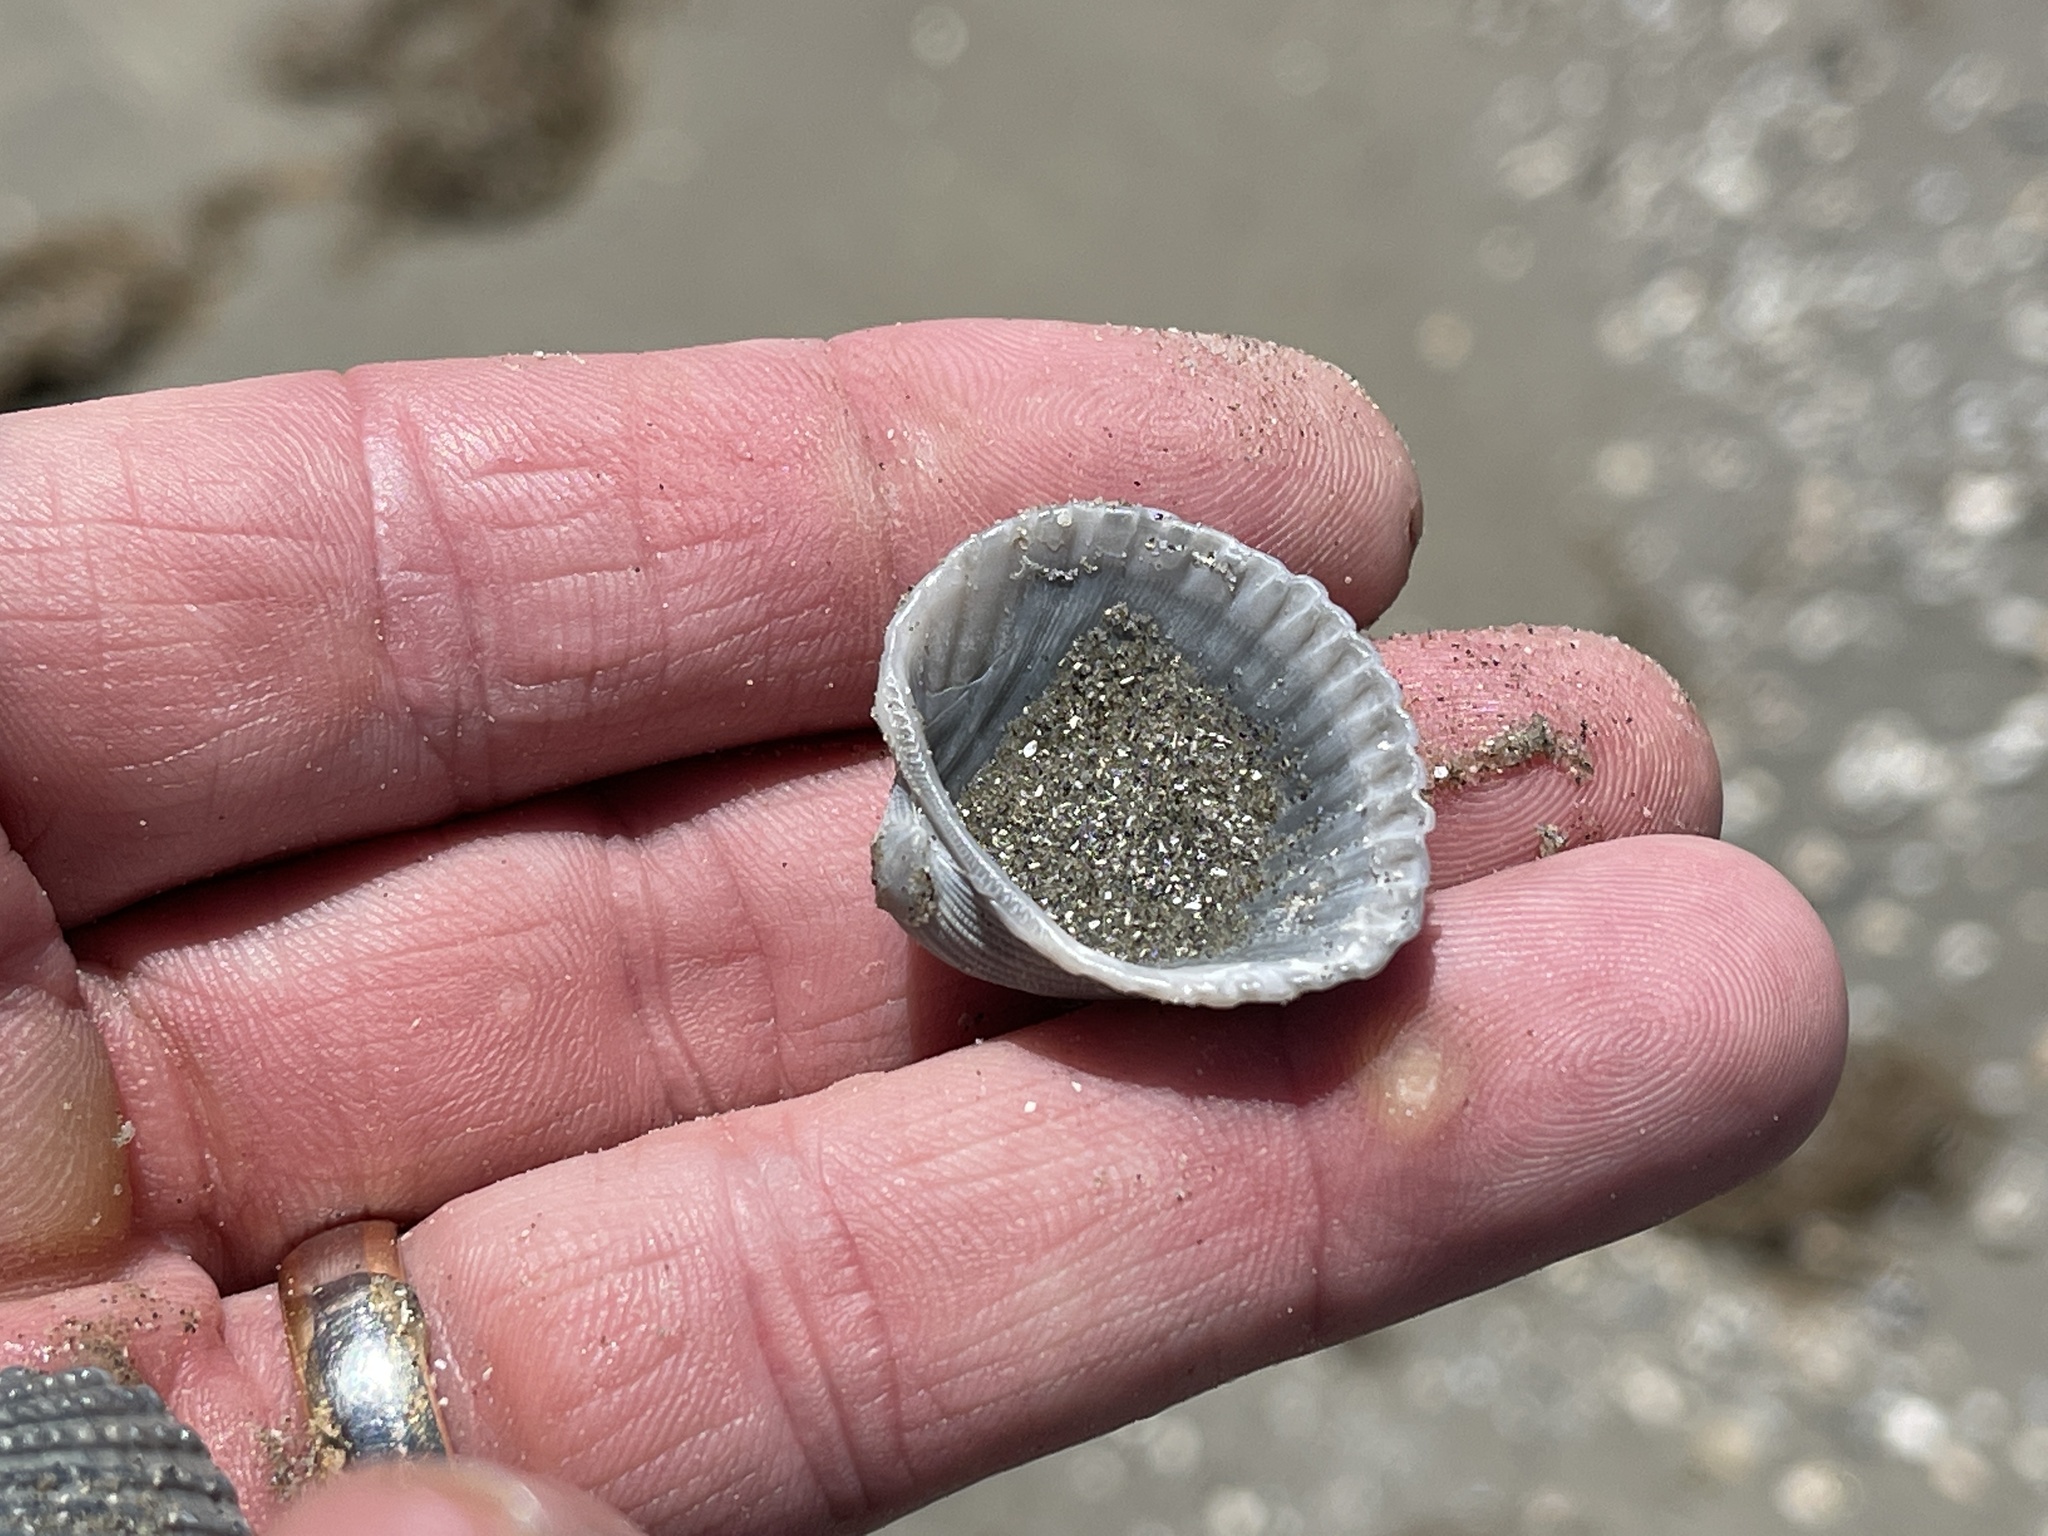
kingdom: Animalia
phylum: Mollusca
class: Bivalvia
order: Arcida
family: Arcidae
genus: Anadara
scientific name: Anadara brasiliana
